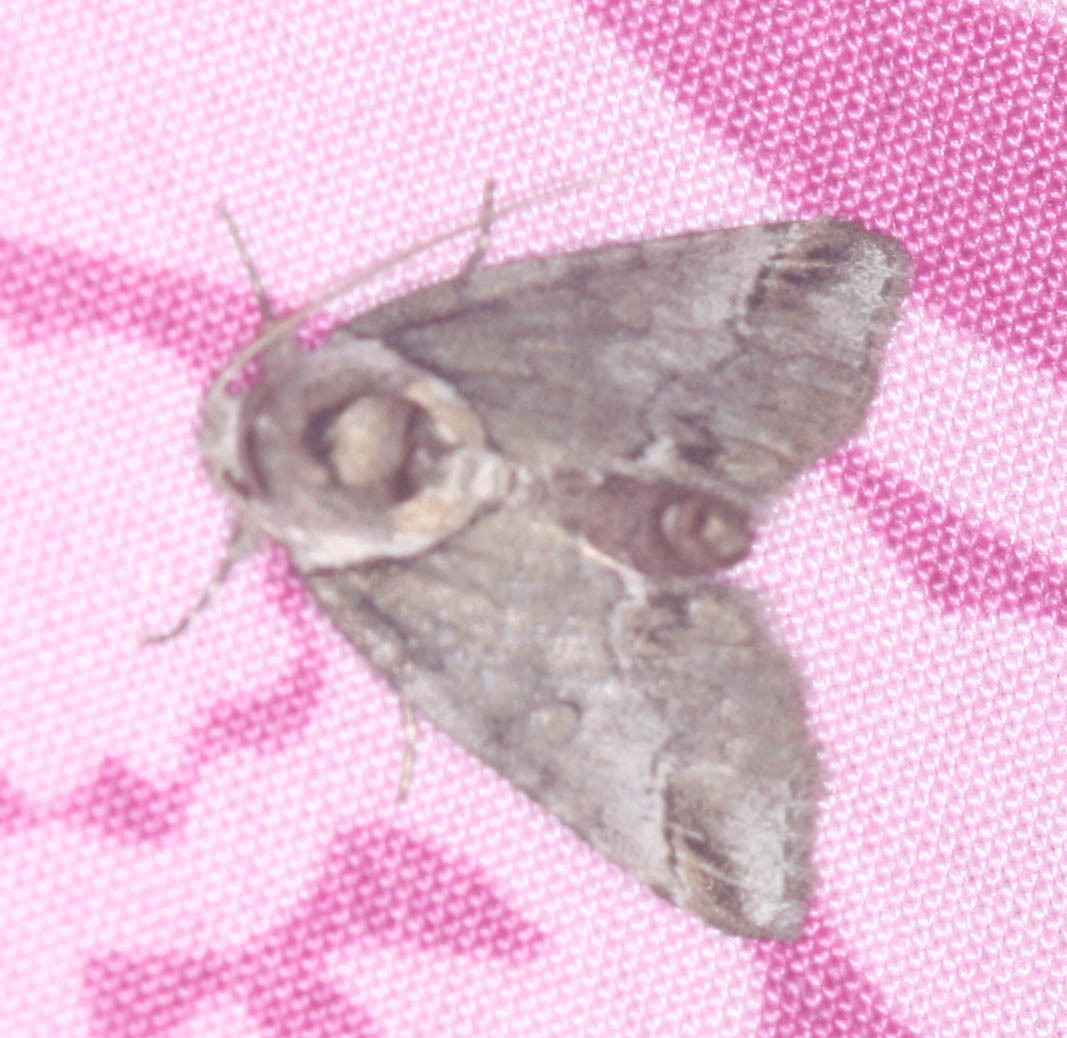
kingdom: Animalia
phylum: Arthropoda
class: Insecta
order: Lepidoptera
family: Nolidae
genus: Baileya
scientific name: Baileya australis
